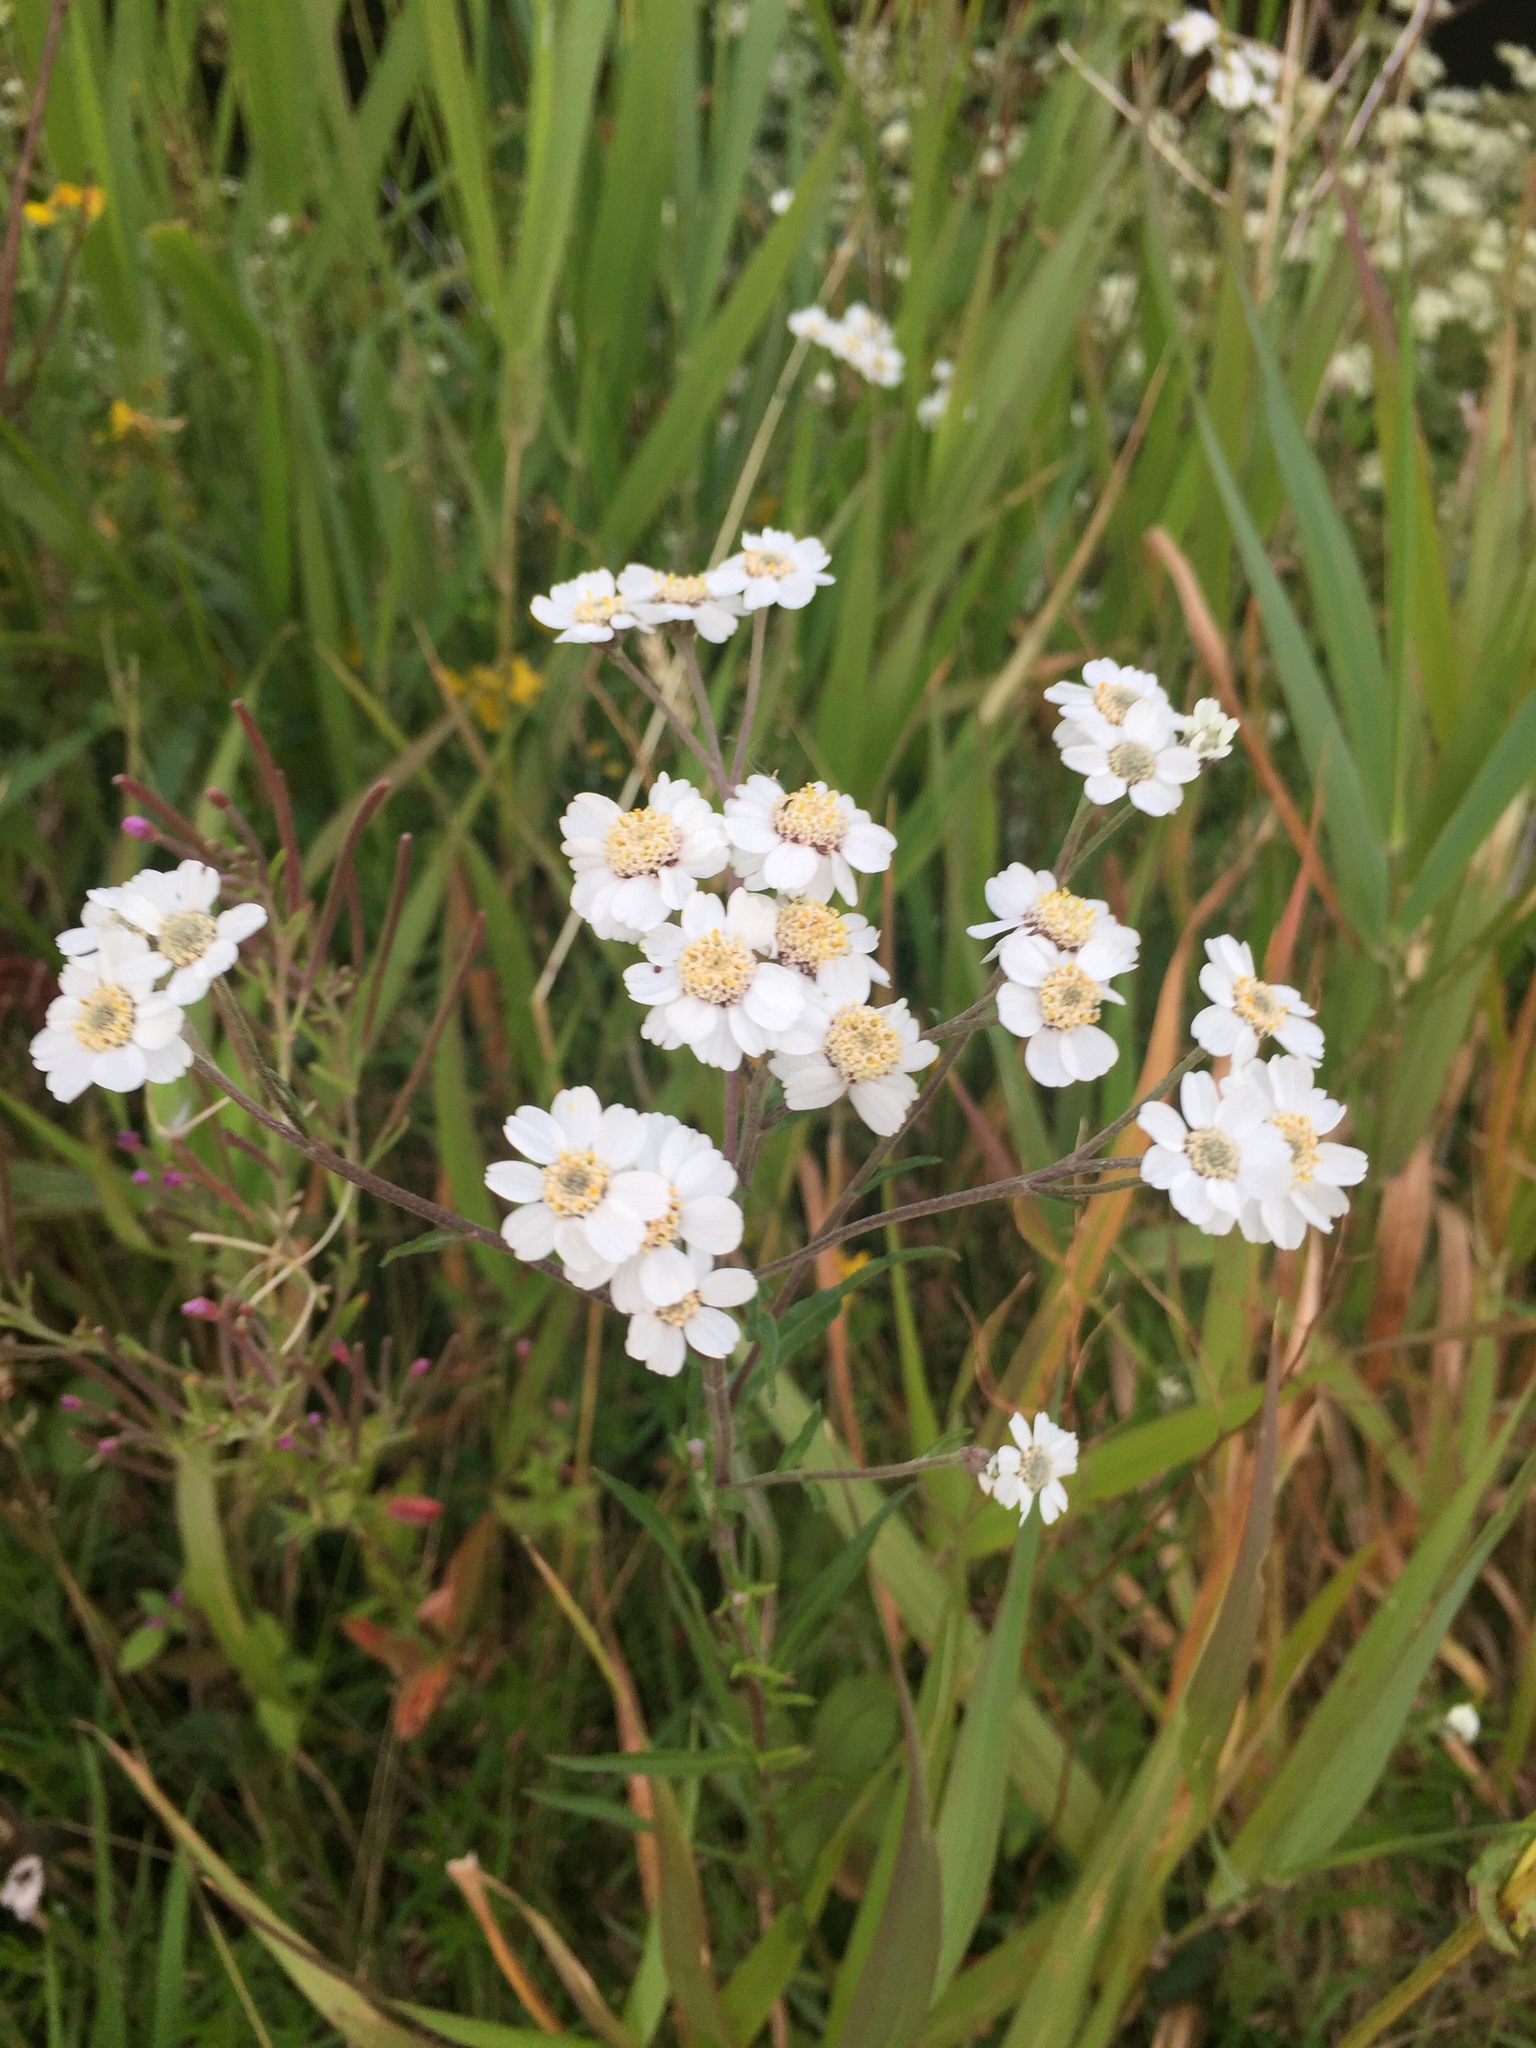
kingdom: Plantae
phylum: Tracheophyta
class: Magnoliopsida
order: Asterales
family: Asteraceae
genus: Achillea
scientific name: Achillea ptarmica
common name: Sneezeweed
